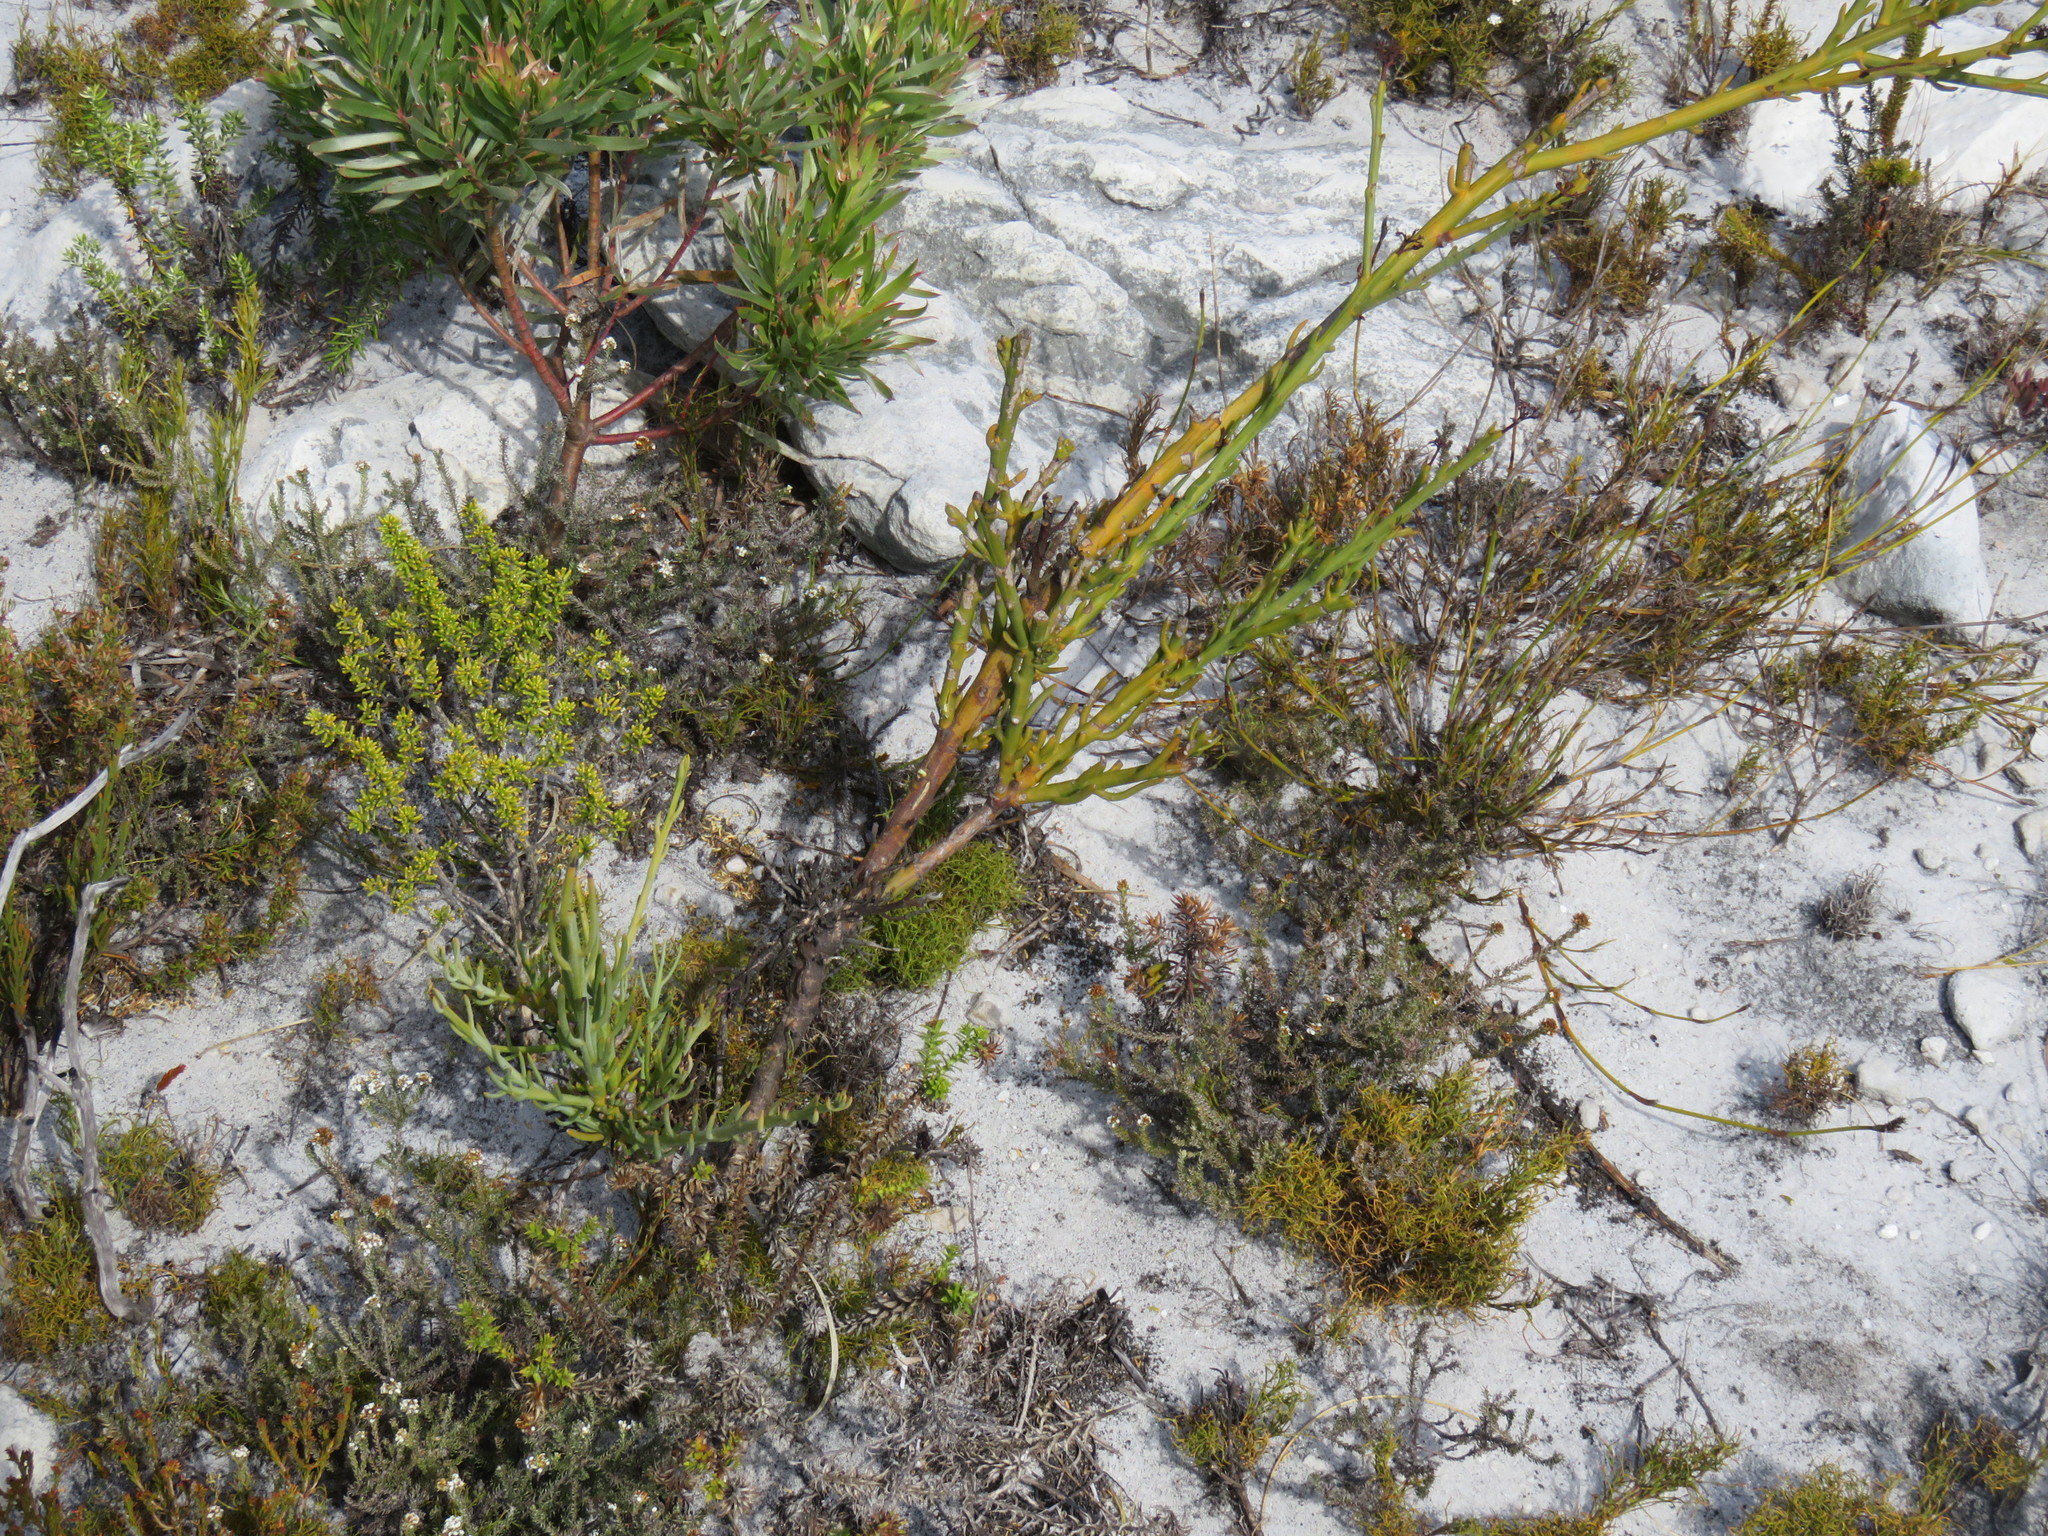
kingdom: Plantae
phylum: Tracheophyta
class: Magnoliopsida
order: Santalales
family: Thesiaceae
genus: Thesium
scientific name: Thesium strictum
